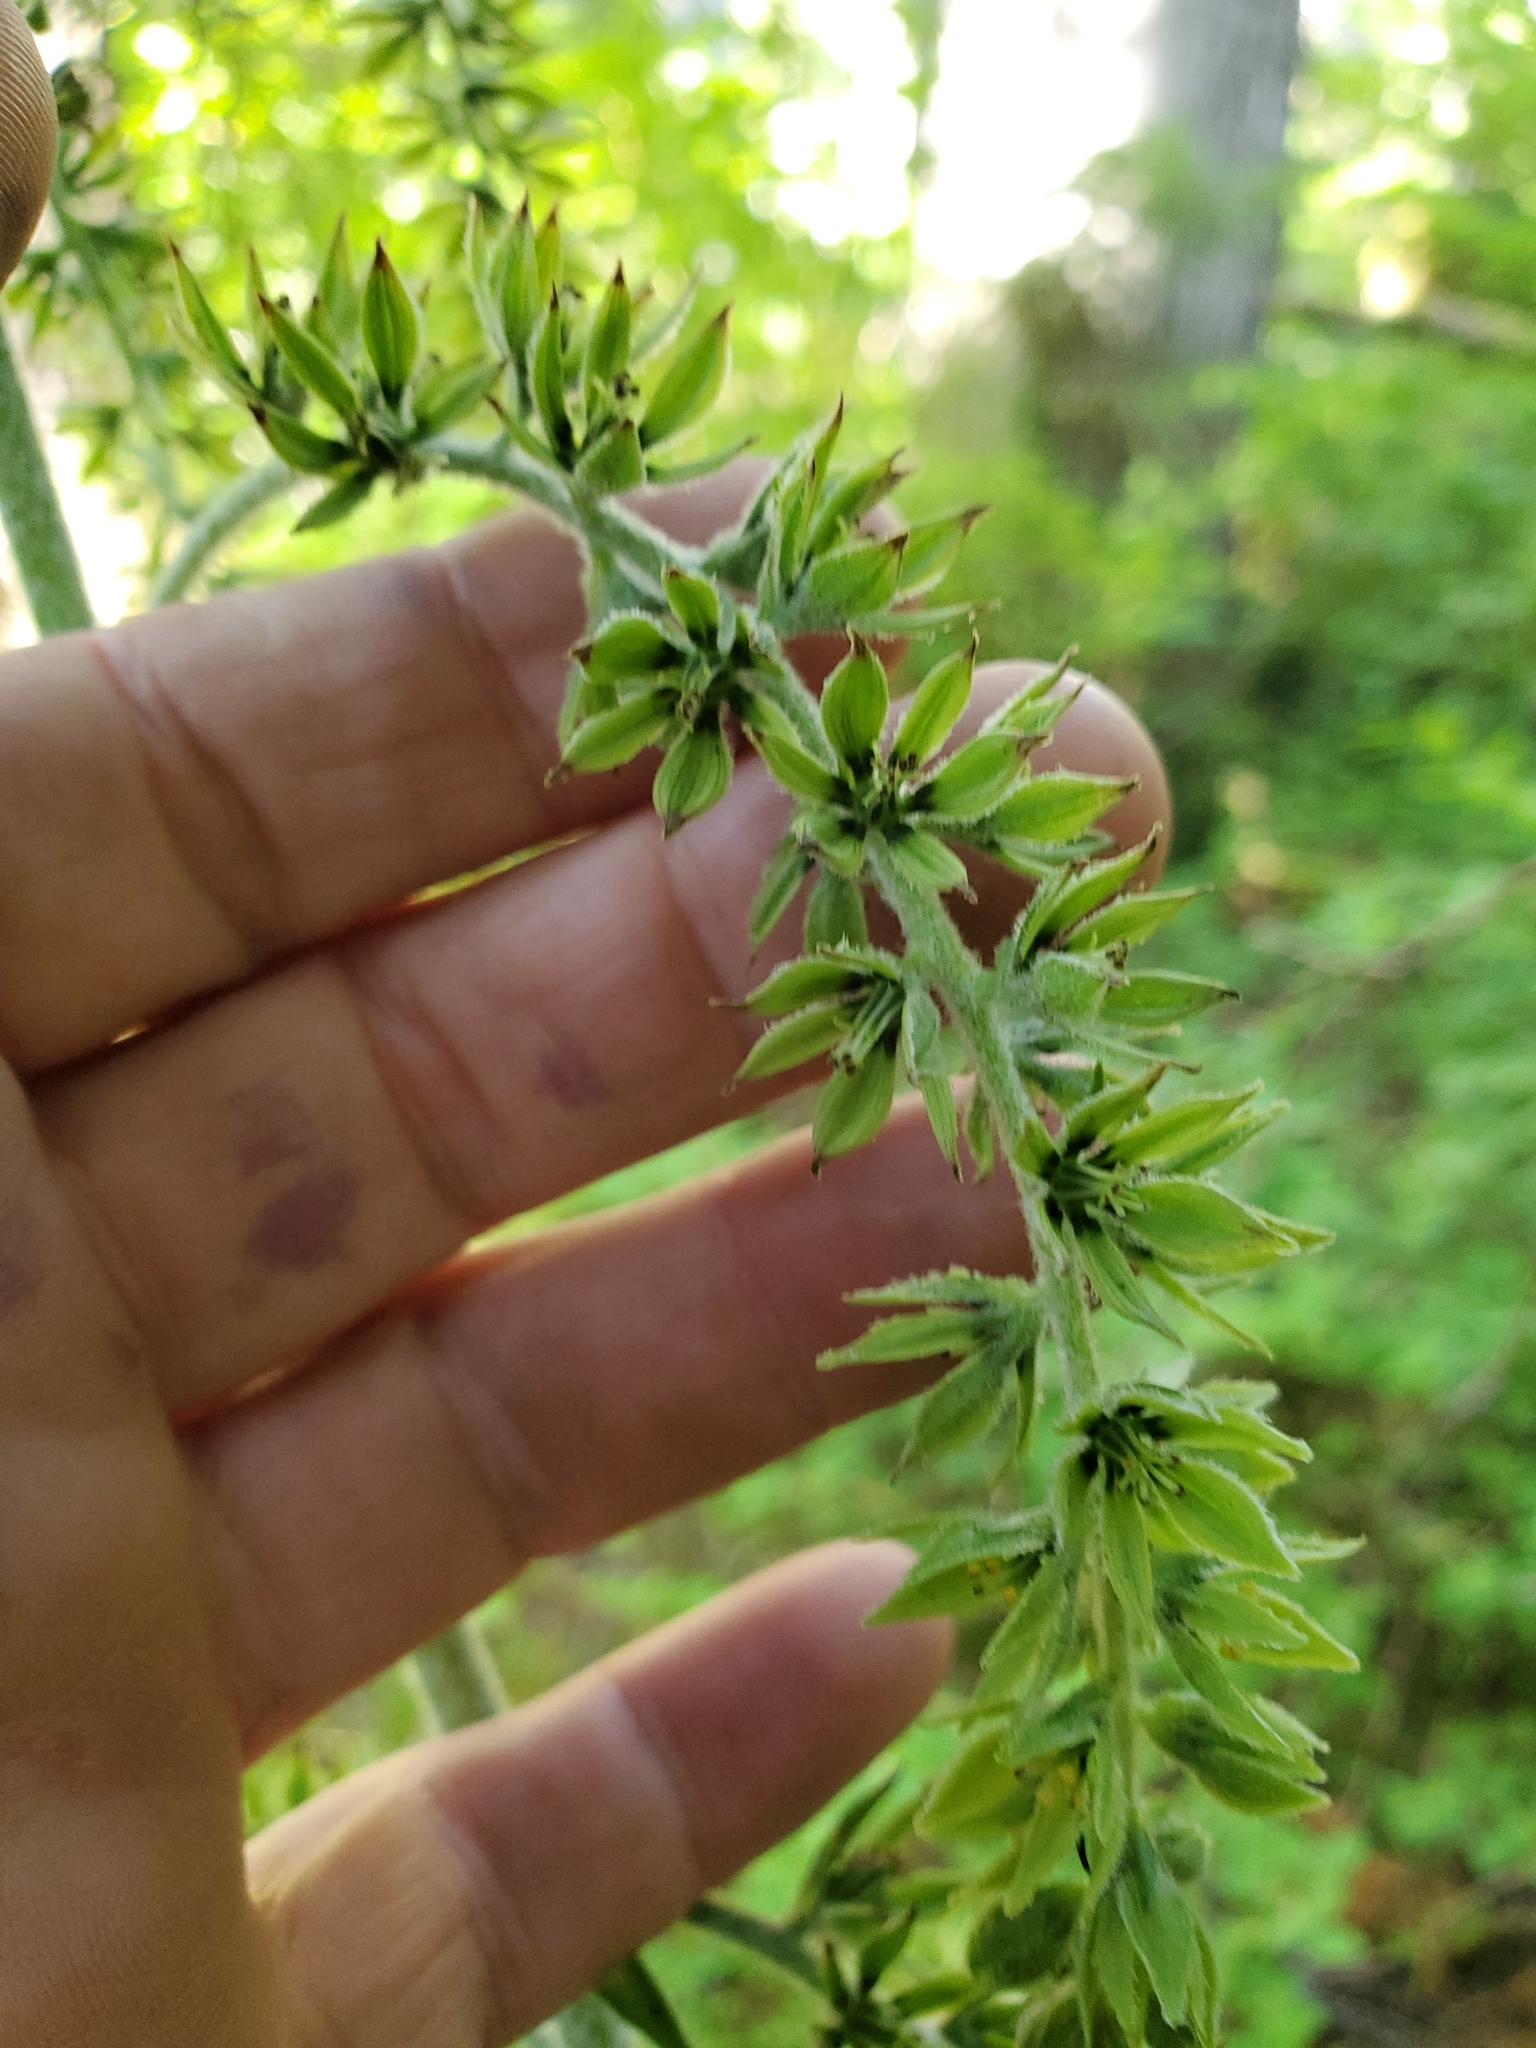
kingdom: Plantae
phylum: Tracheophyta
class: Liliopsida
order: Liliales
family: Melanthiaceae
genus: Veratrum
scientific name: Veratrum viride
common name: American false hellebore
